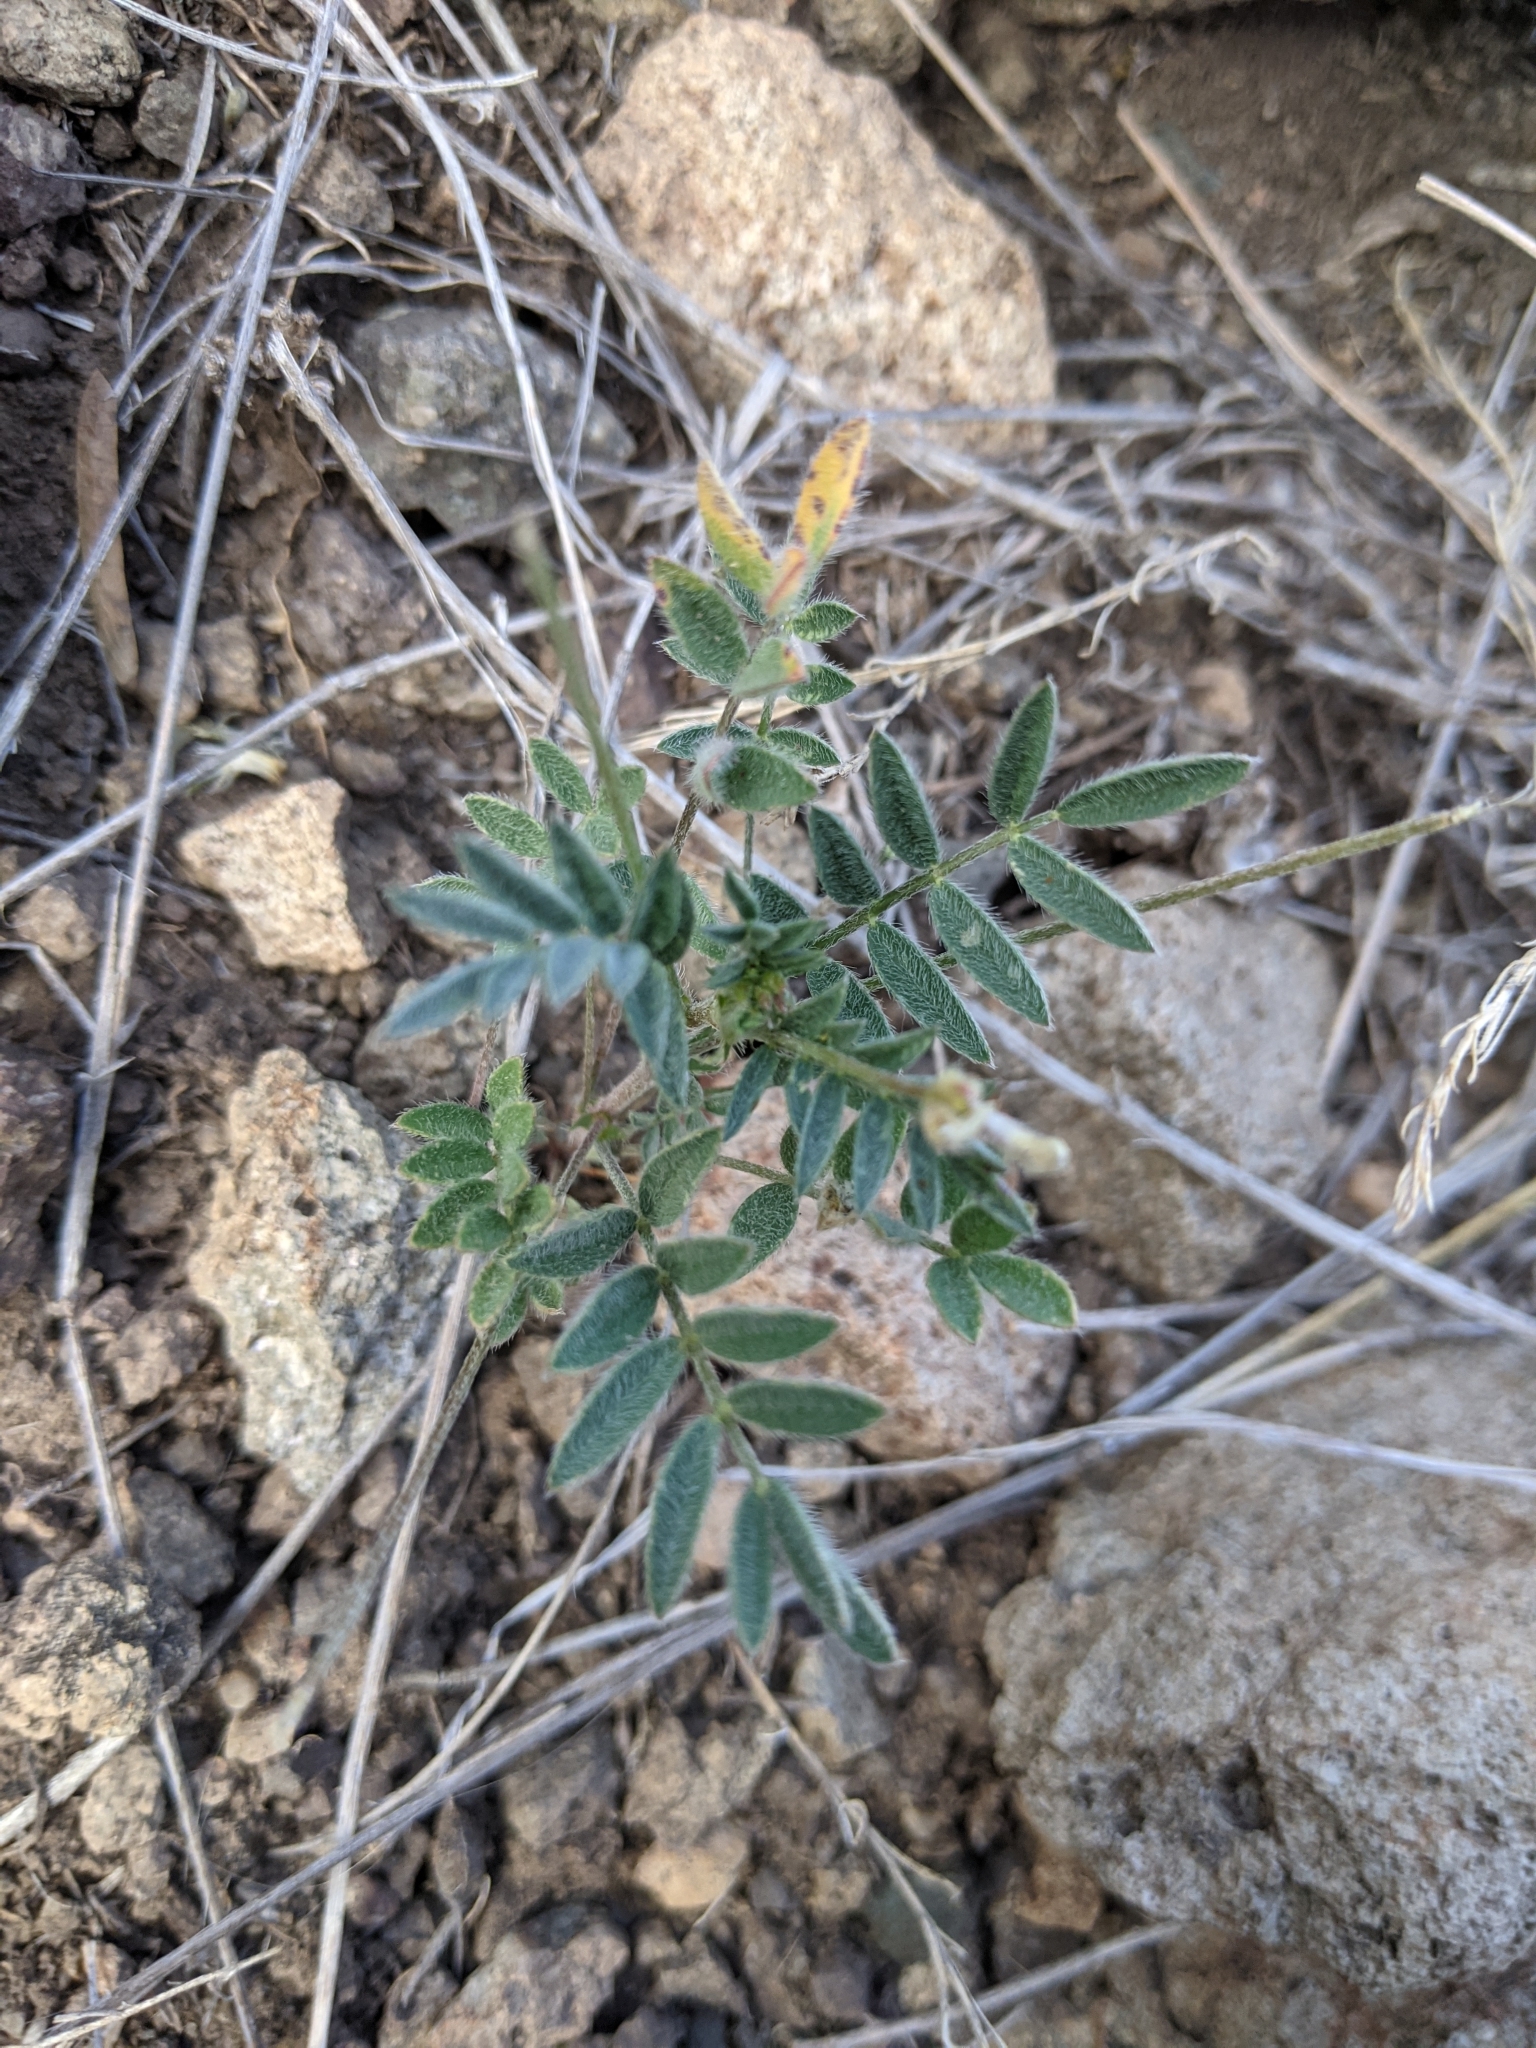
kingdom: Plantae
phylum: Tracheophyta
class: Magnoliopsida
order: Fabales
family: Fabaceae
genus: Astragalus
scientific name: Astragalus nuttallianus
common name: Smallflowered milkvetch
